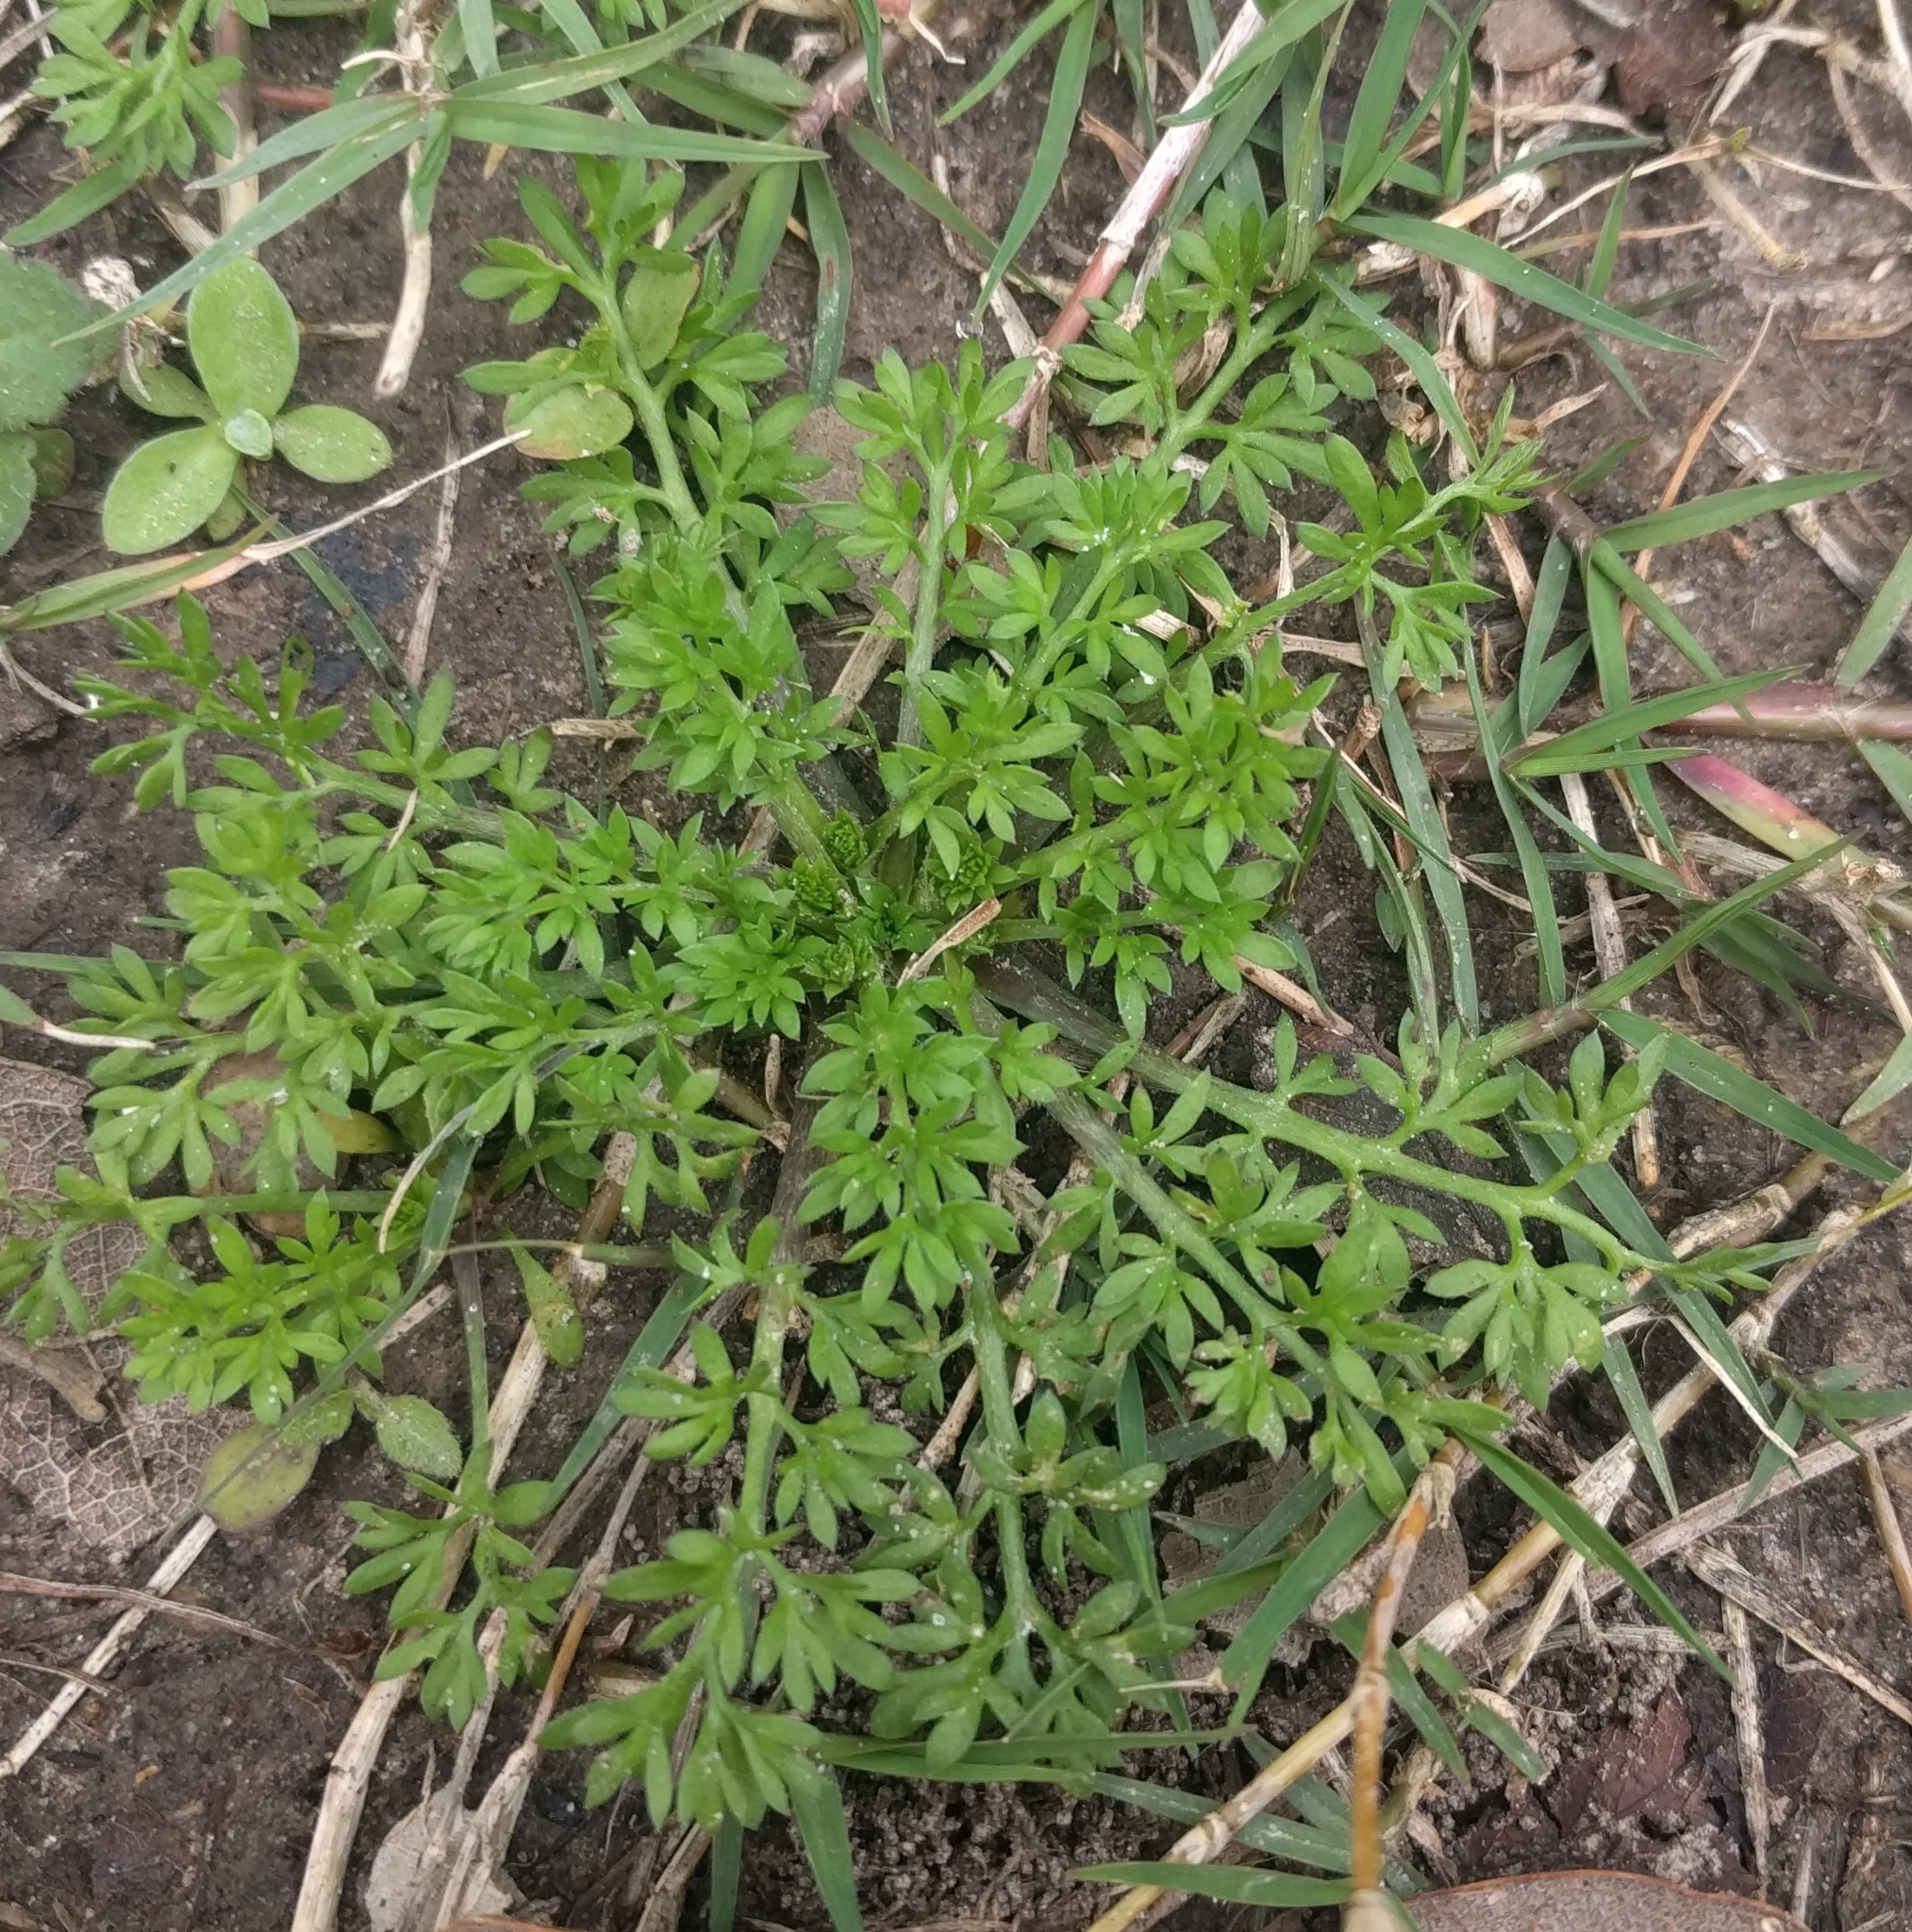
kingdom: Plantae
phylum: Tracheophyta
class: Magnoliopsida
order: Asterales
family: Asteraceae
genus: Soliva
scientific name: Soliva sessilis
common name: Field burrweed
